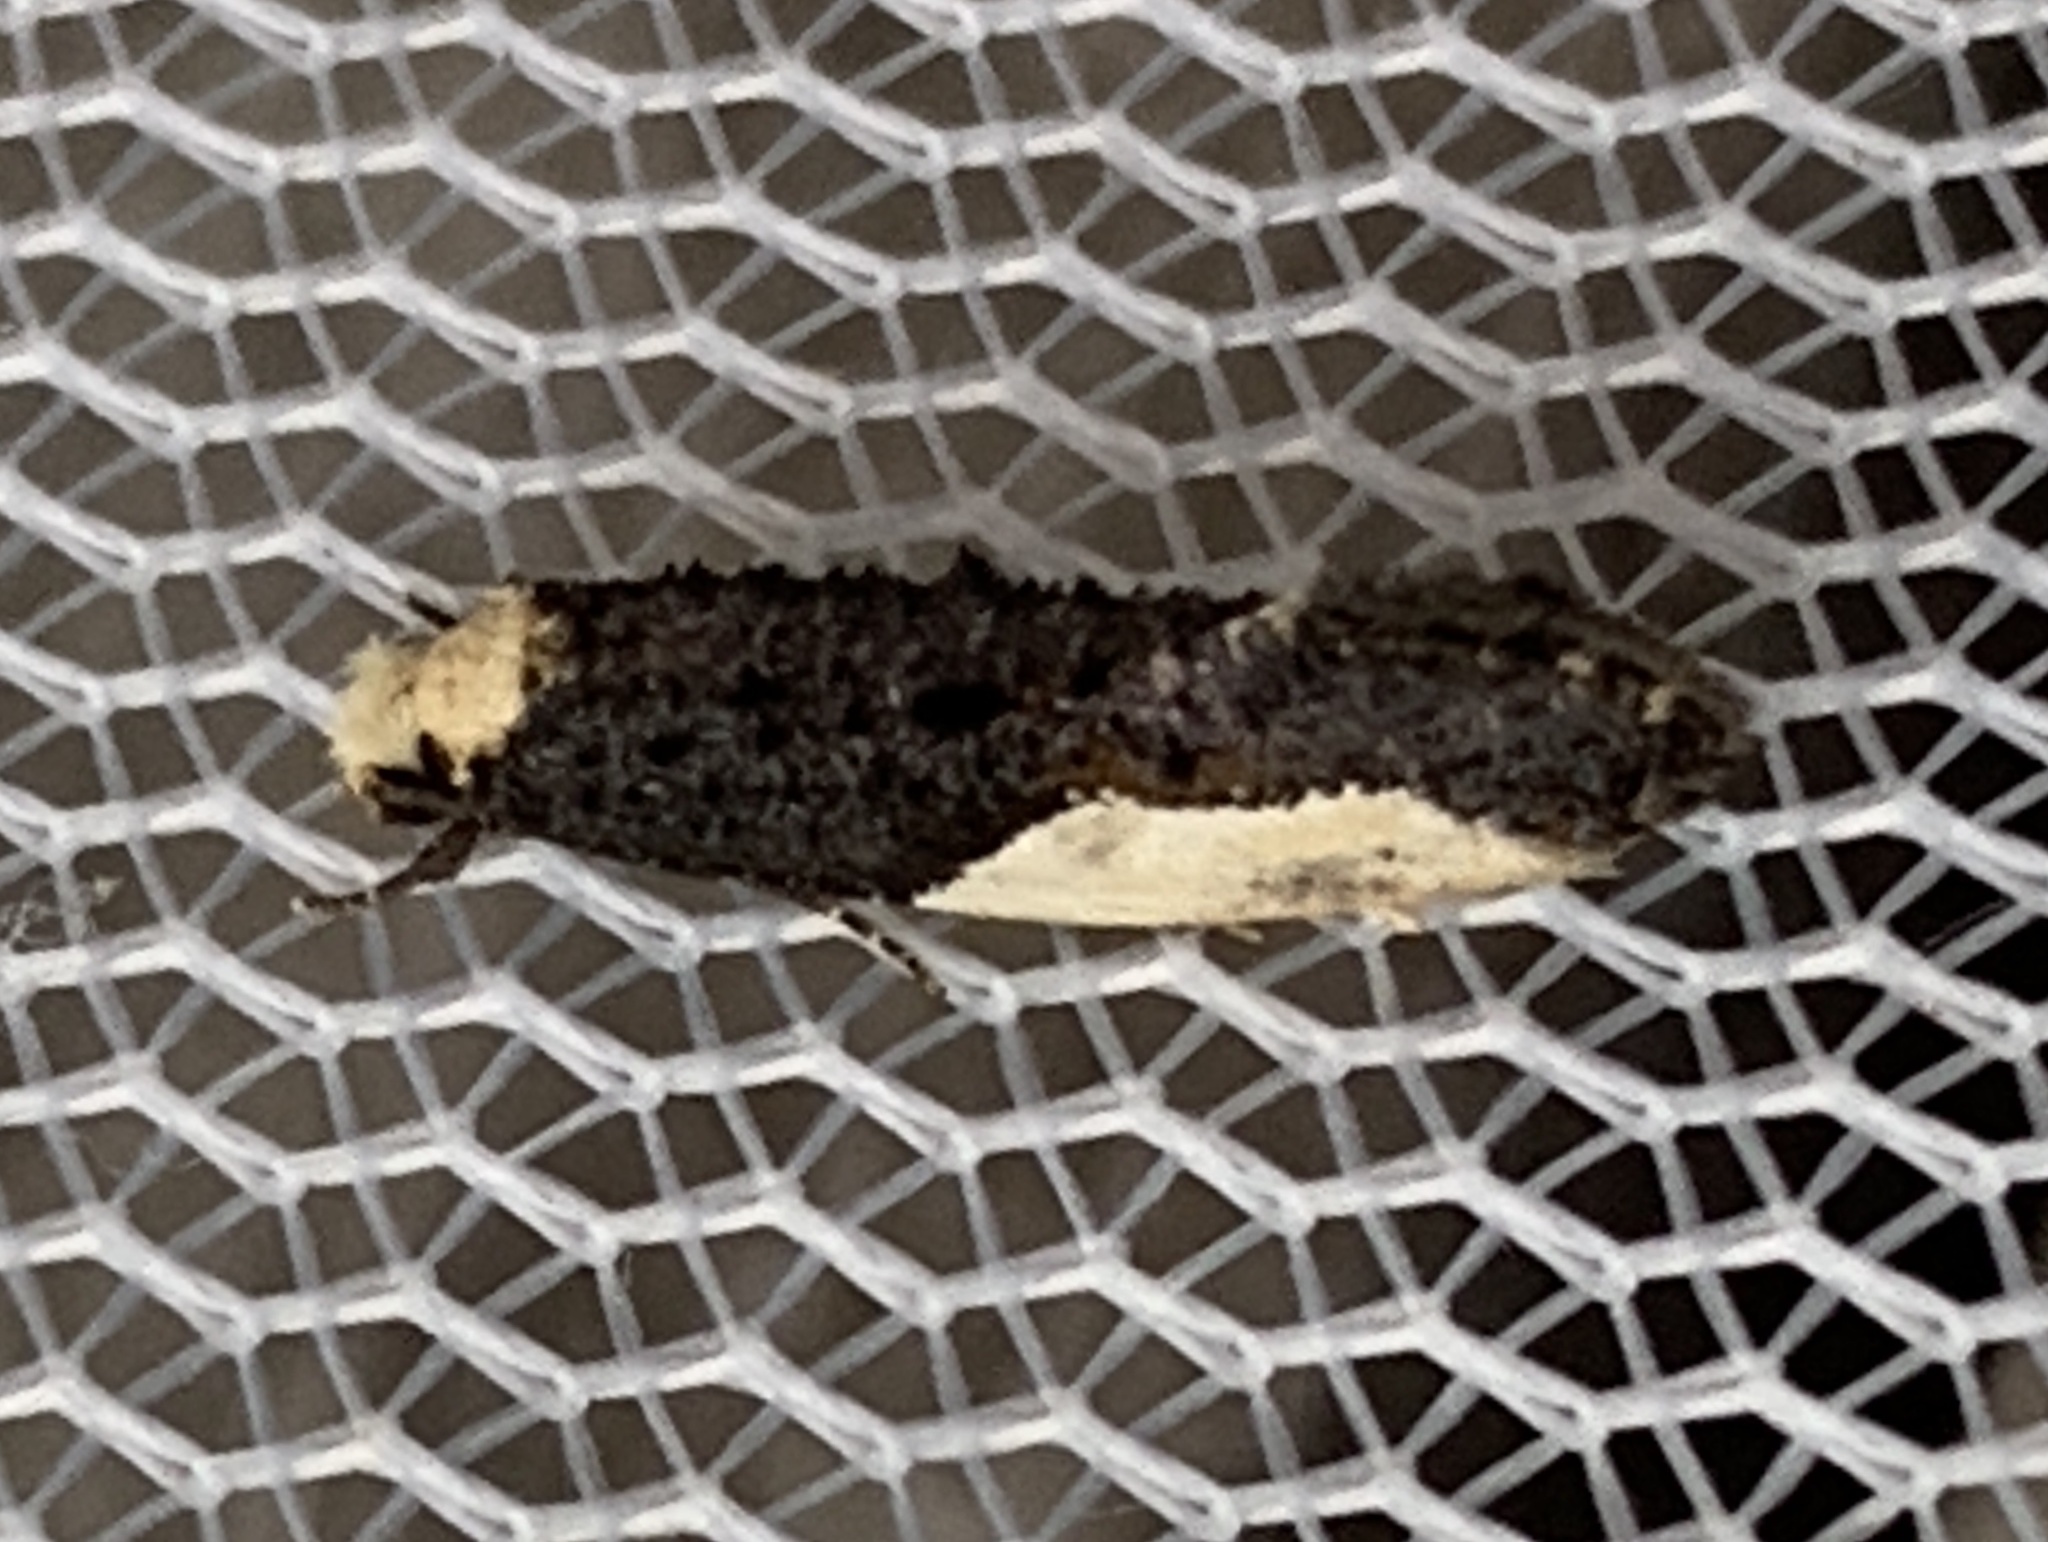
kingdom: Animalia
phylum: Arthropoda
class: Insecta
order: Lepidoptera
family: Tineidae
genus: Monopis
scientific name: Monopis longella
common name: Pavlovski's monopis moth
